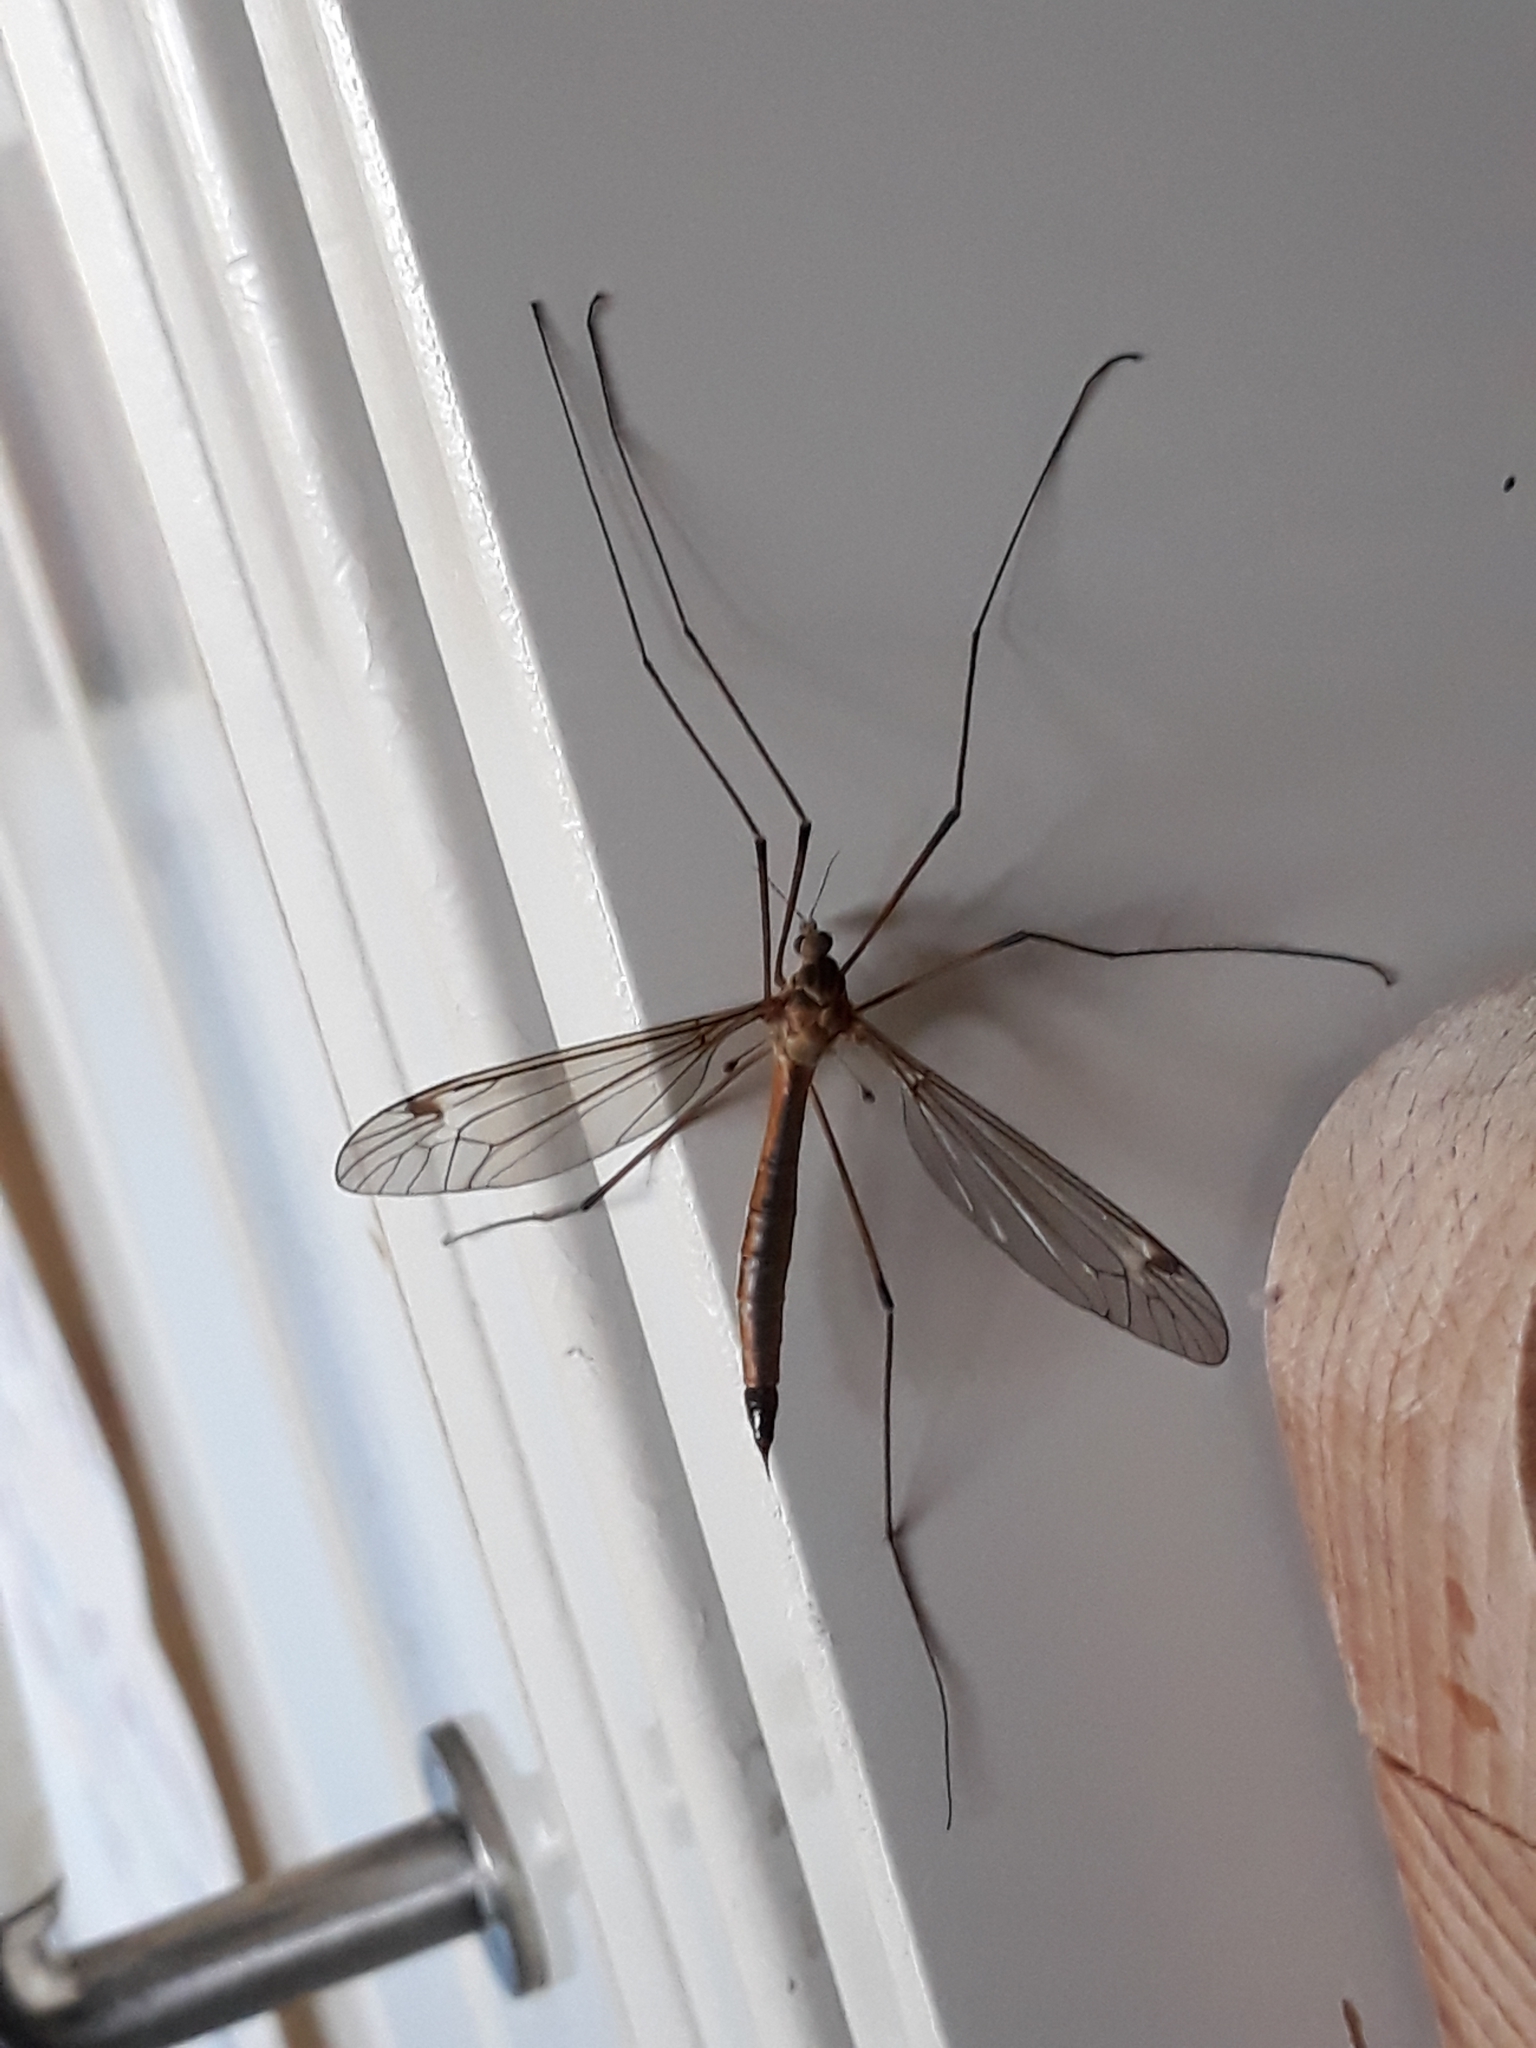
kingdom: Animalia
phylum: Arthropoda
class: Insecta
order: Diptera
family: Tipulidae
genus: Tipula
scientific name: Tipula paludosa
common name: European cranefly
